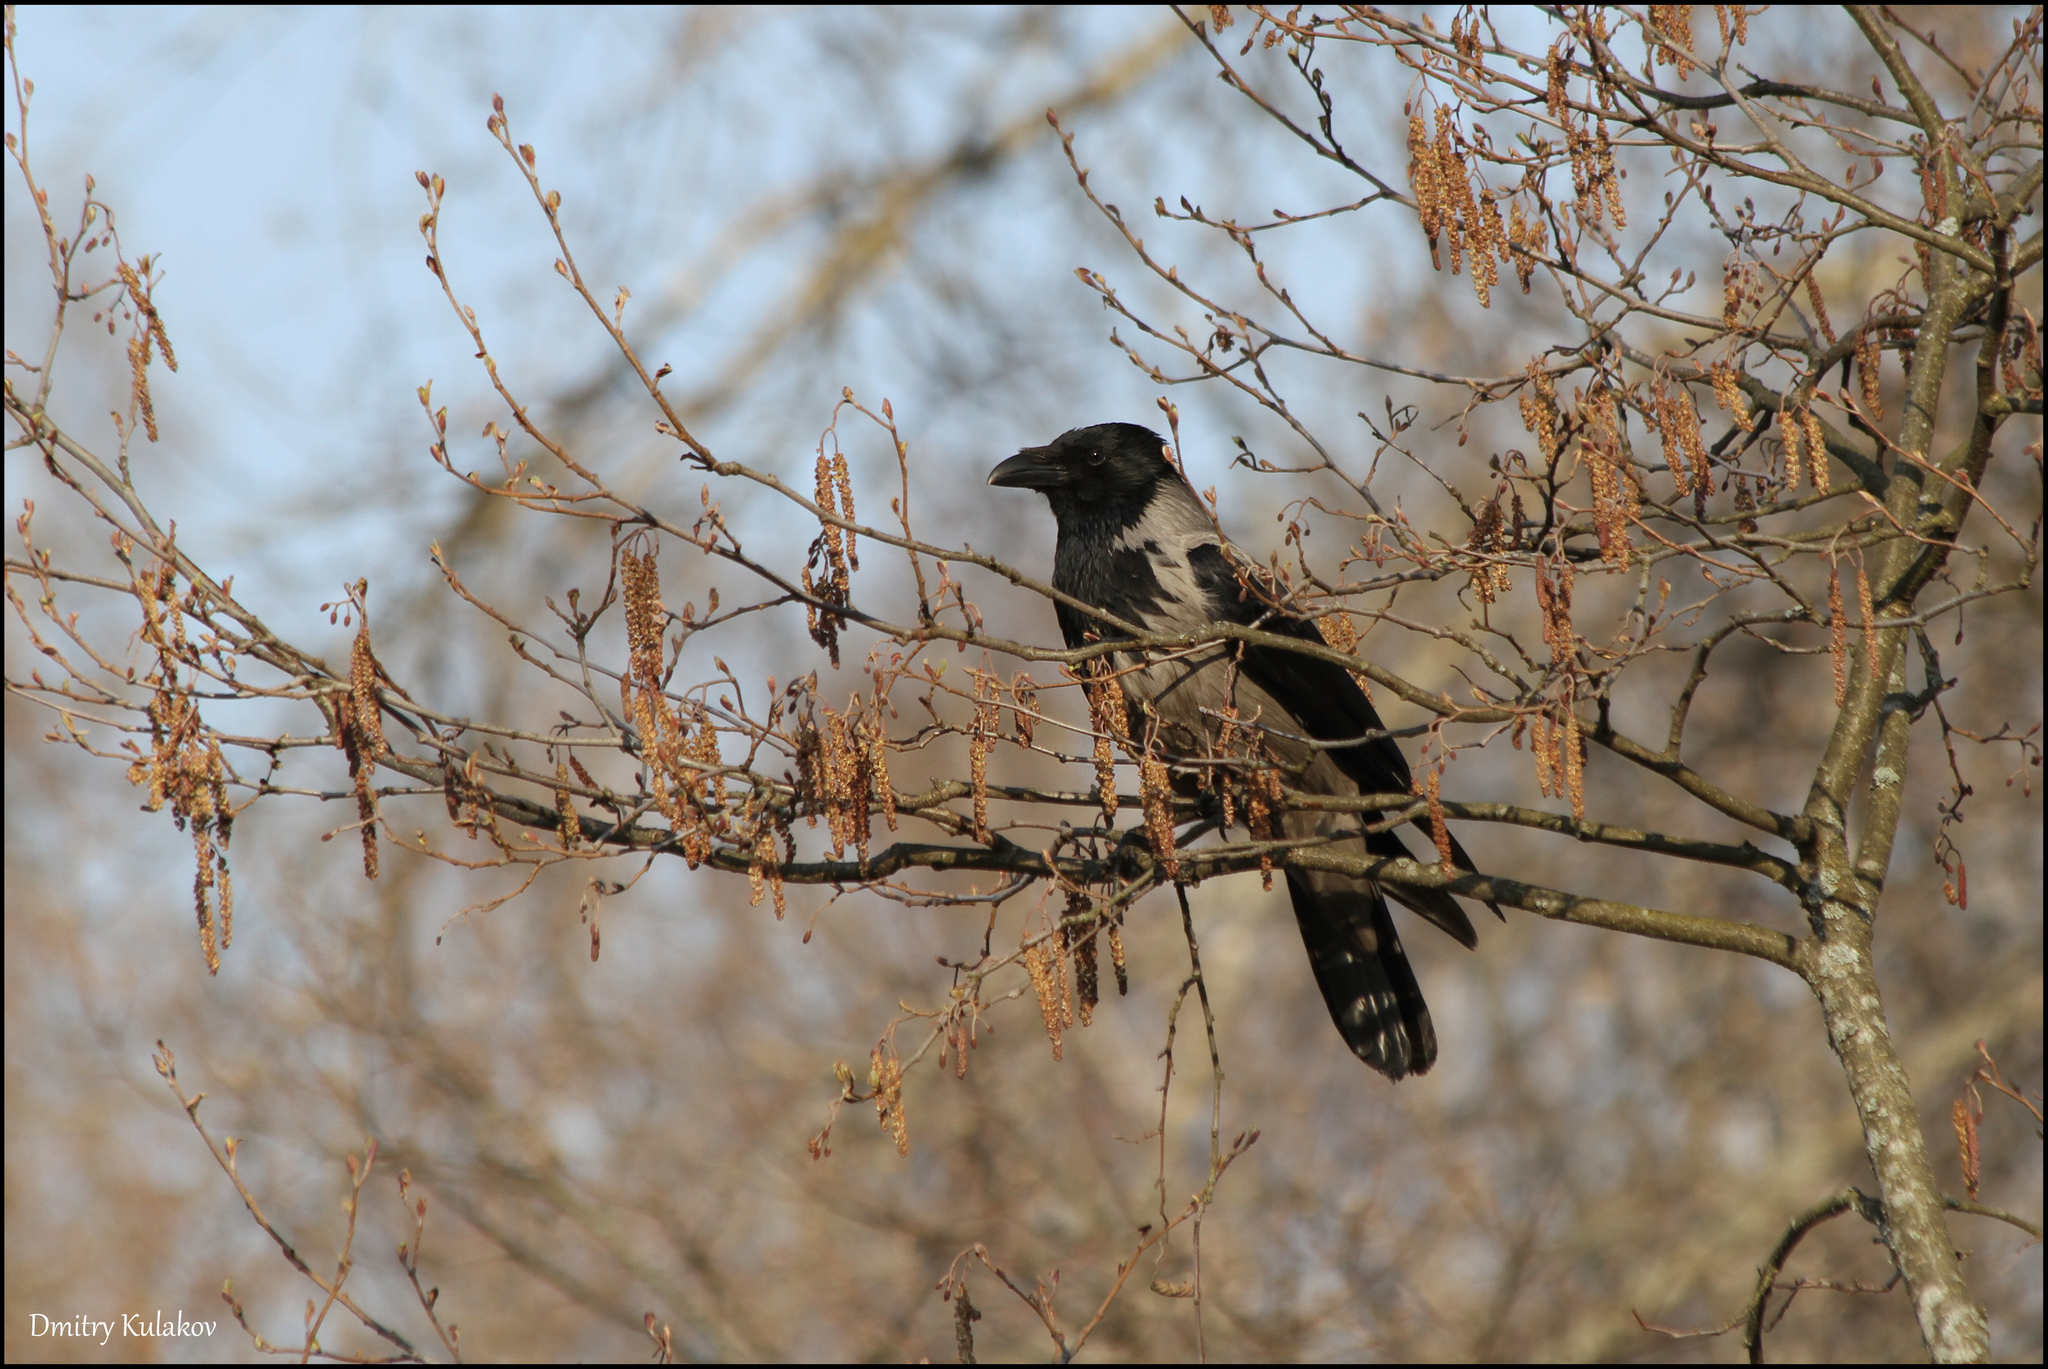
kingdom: Animalia
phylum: Chordata
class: Aves
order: Passeriformes
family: Corvidae
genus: Corvus
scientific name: Corvus cornix
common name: Hooded crow
